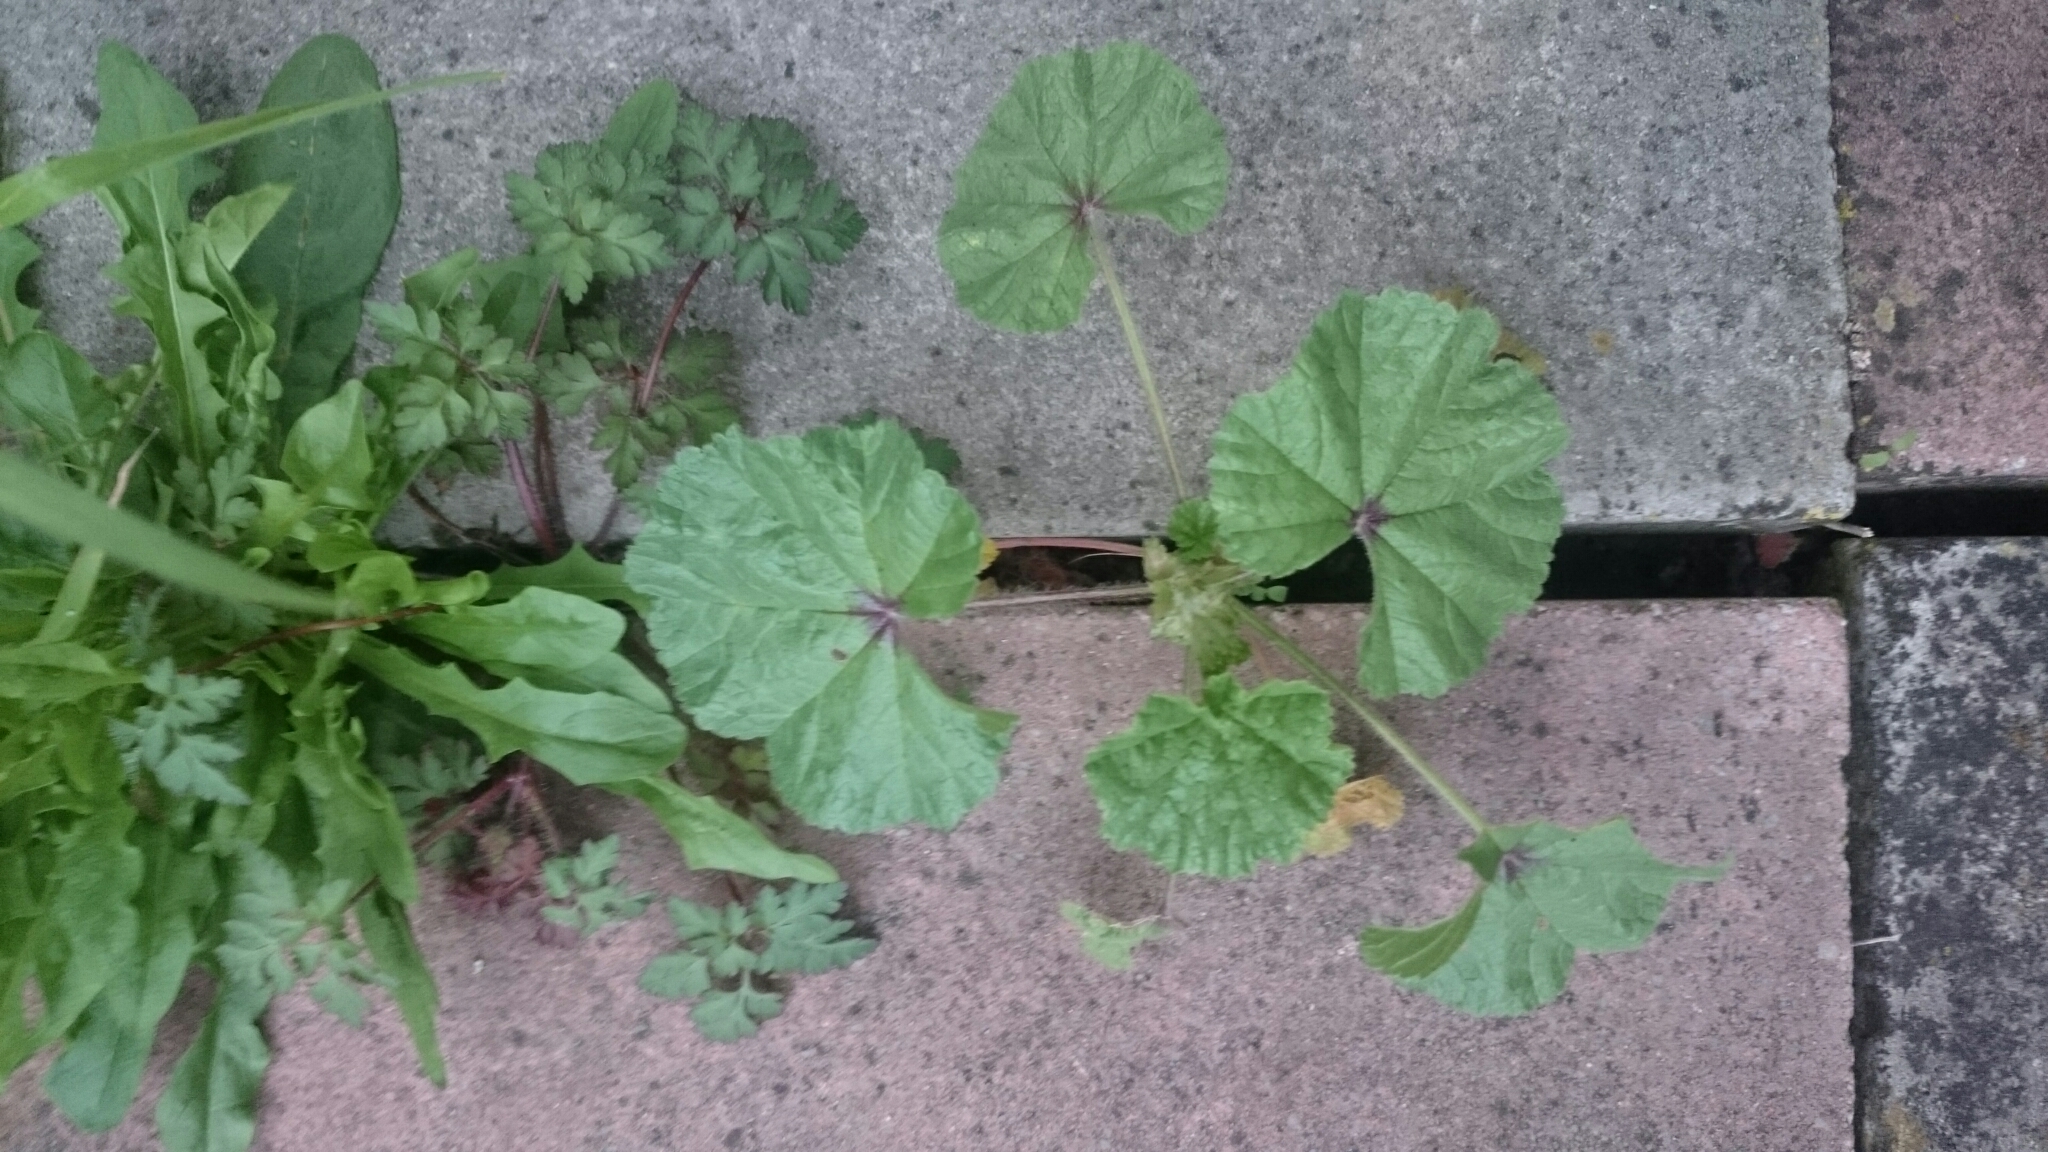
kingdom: Plantae
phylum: Tracheophyta
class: Magnoliopsida
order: Malvales
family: Malvaceae
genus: Malva
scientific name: Malva sylvestris
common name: Common mallow
